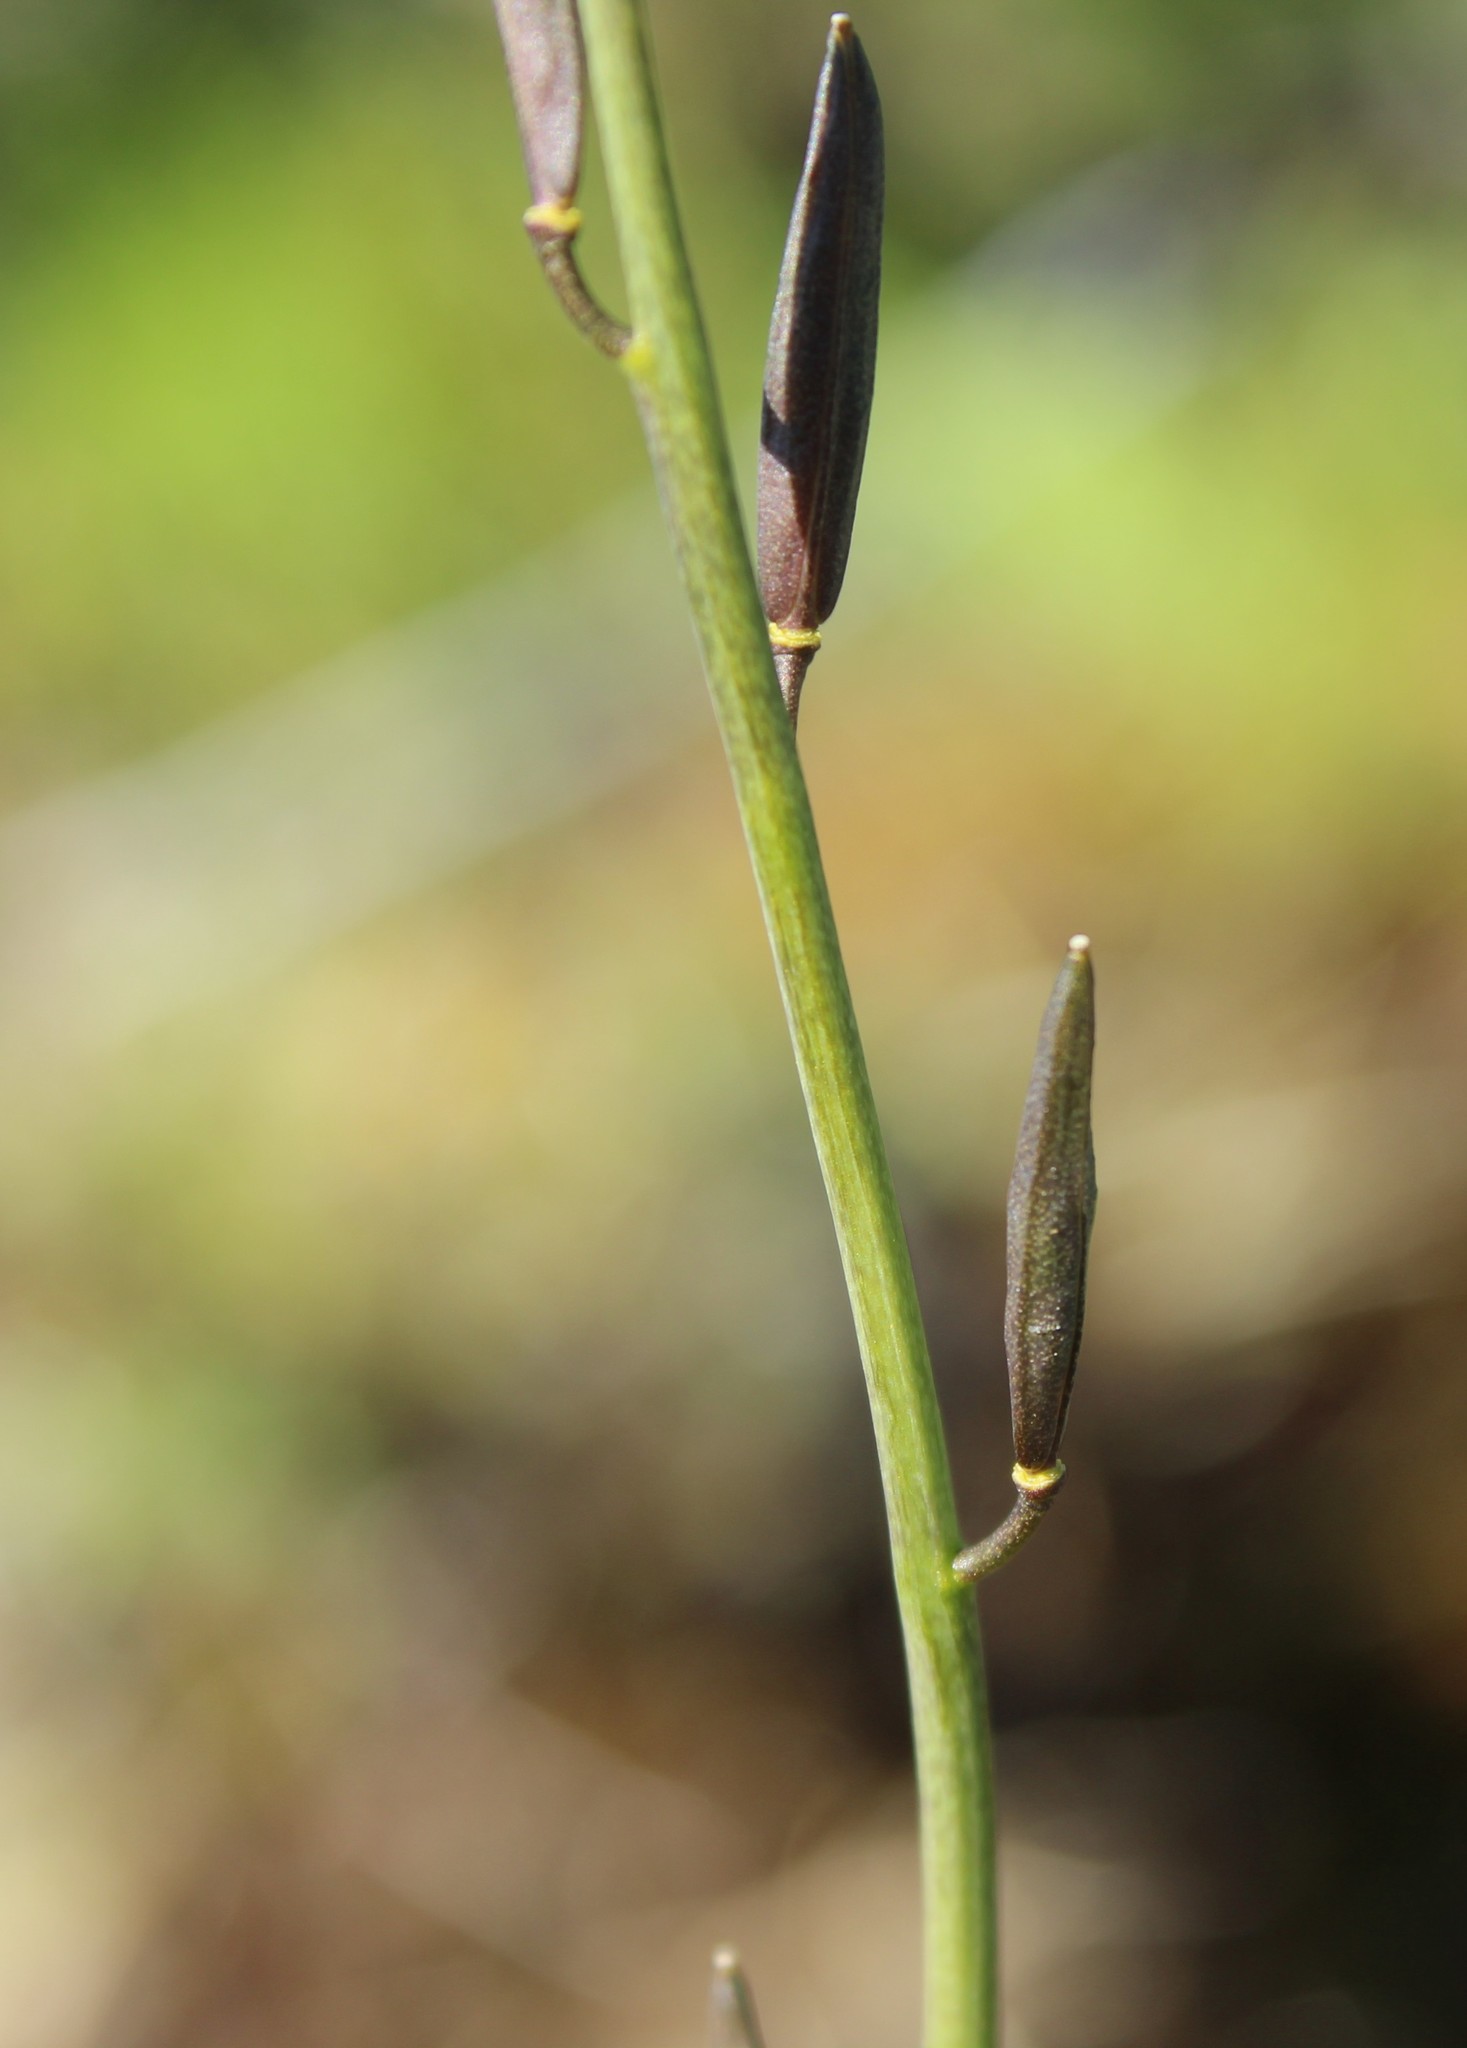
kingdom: Plantae
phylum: Tracheophyta
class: Magnoliopsida
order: Brassicales
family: Brassicaceae
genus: Eutrema
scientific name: Eutrema edwardsii
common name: Penland alpine fen mustard
